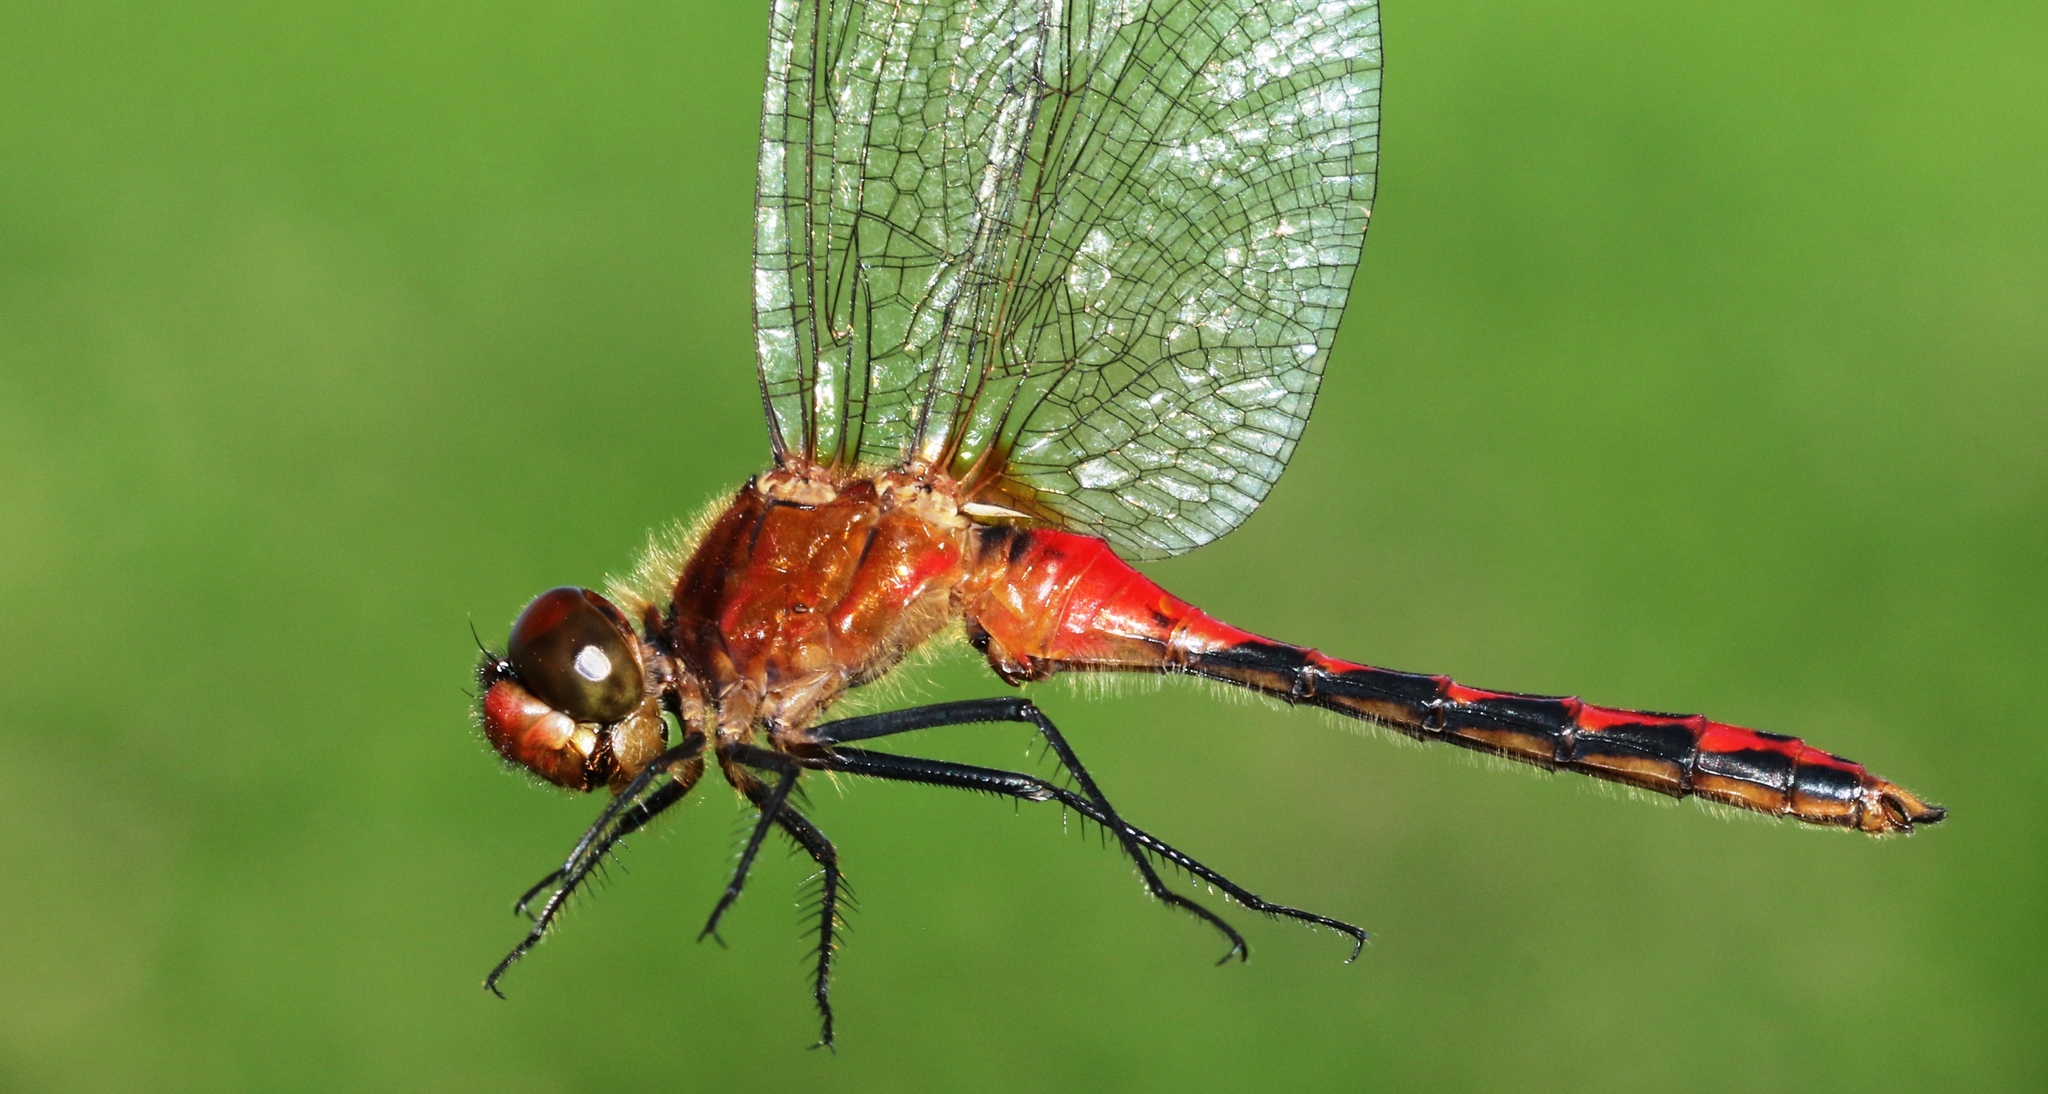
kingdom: Animalia
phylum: Arthropoda
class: Insecta
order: Odonata
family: Libellulidae
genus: Sympetrum
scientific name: Sympetrum internum
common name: Cherry-faced meadowhawk
